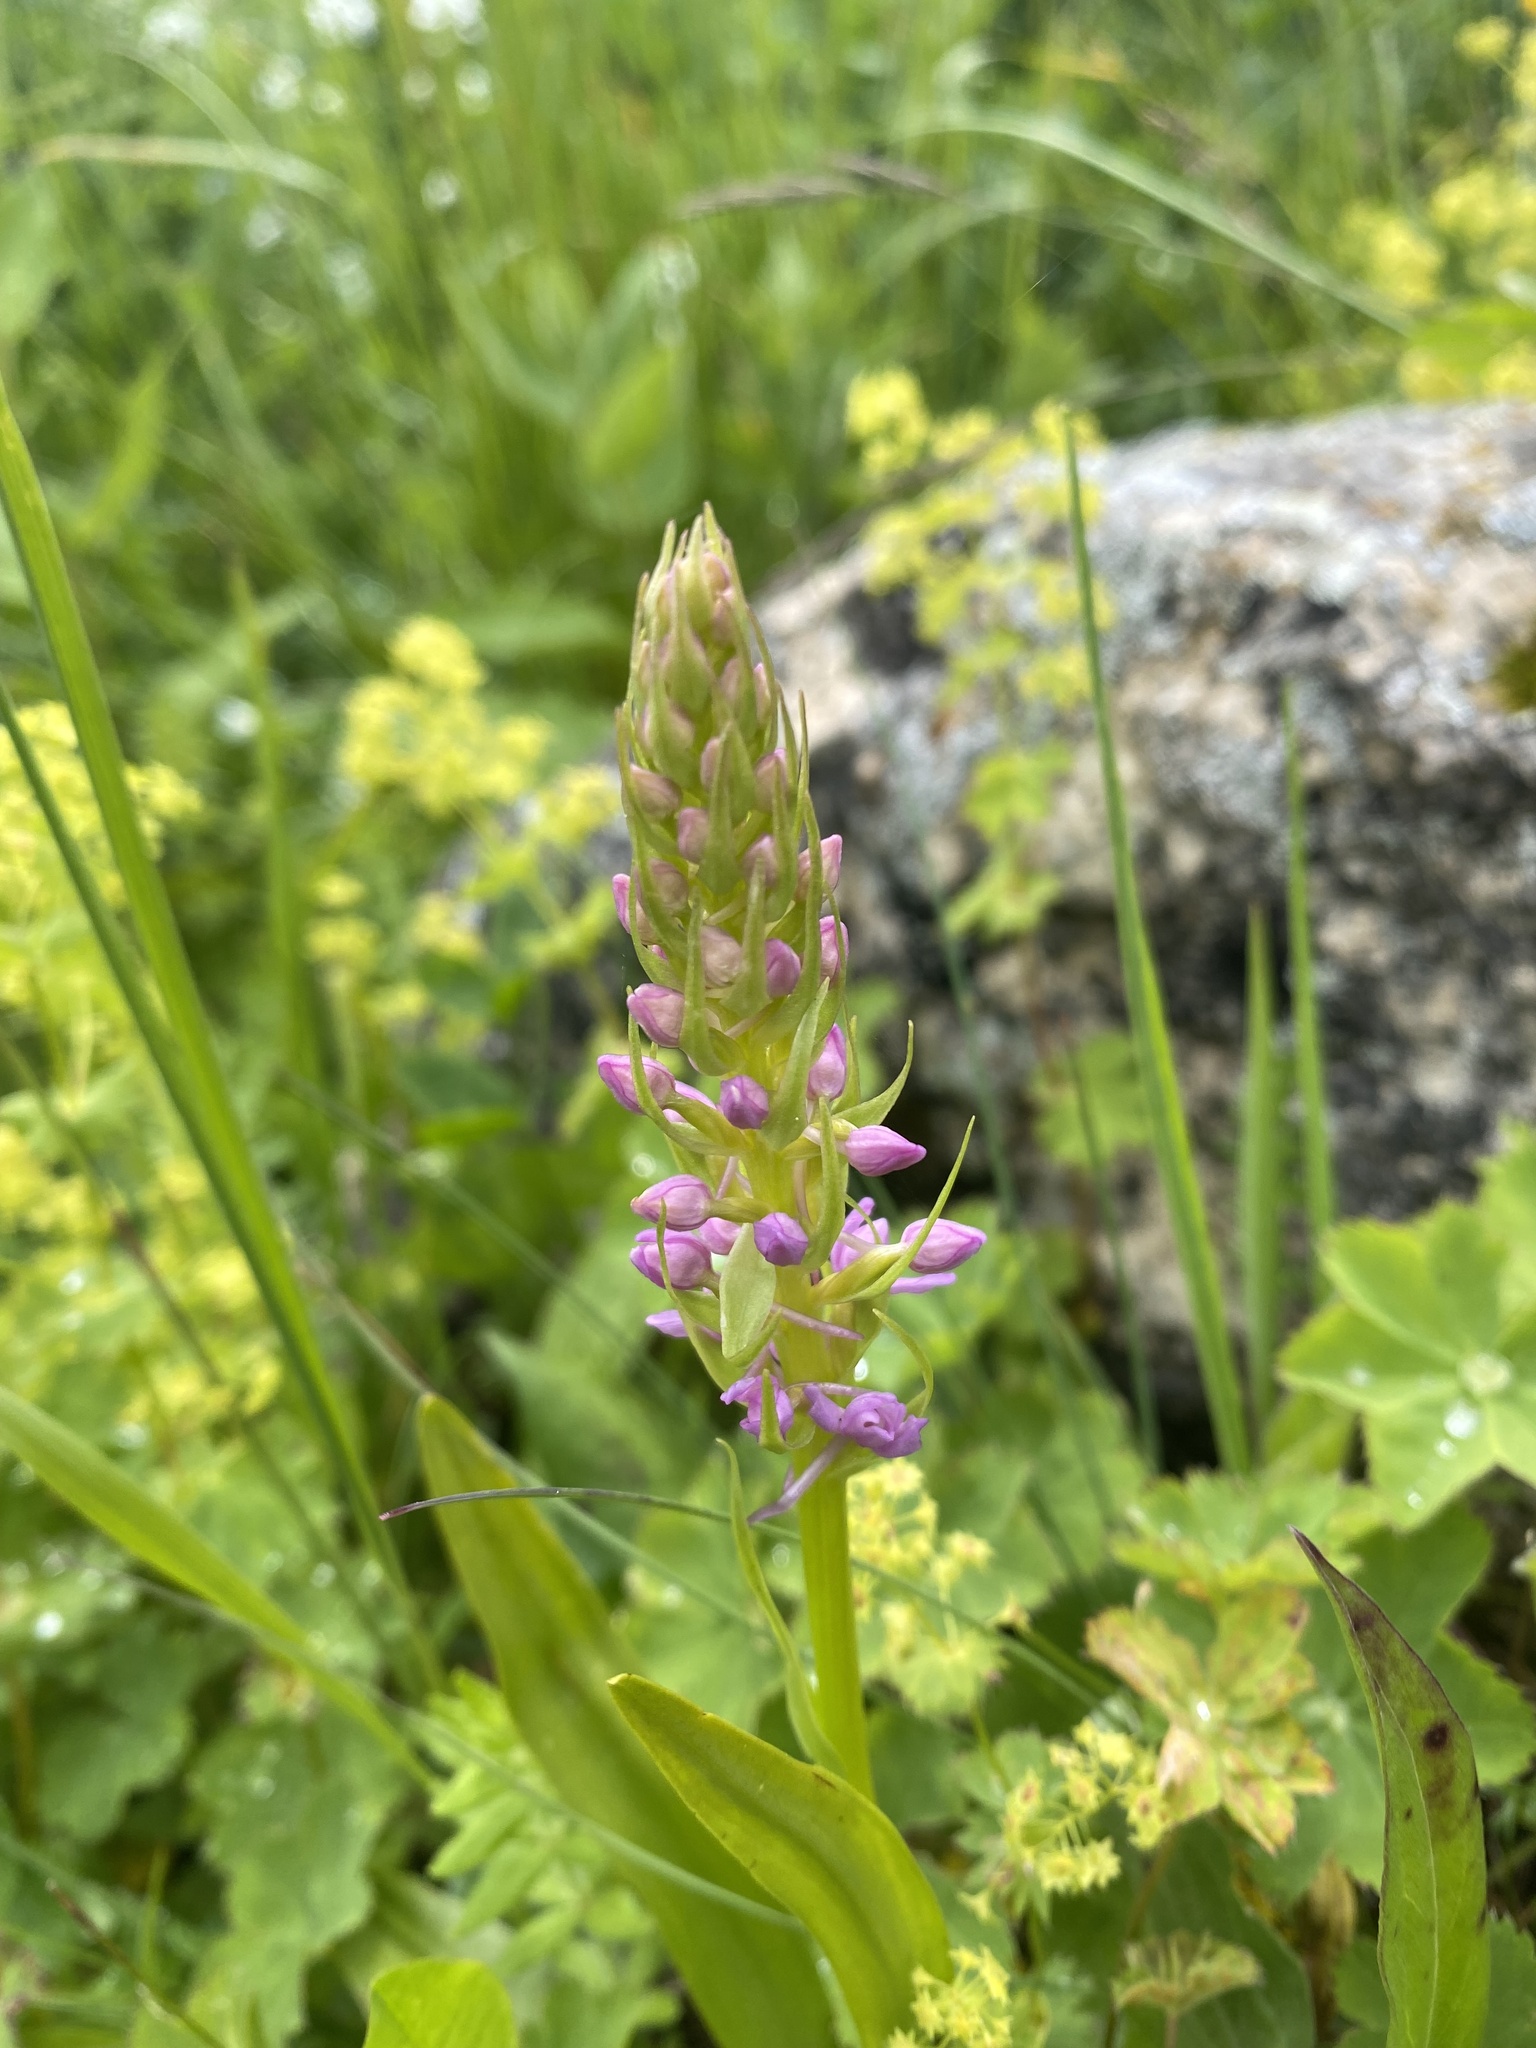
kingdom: Plantae
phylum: Tracheophyta
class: Liliopsida
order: Asparagales
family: Orchidaceae
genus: Gymnadenia
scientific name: Gymnadenia conopsea
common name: Fragrant orchid
